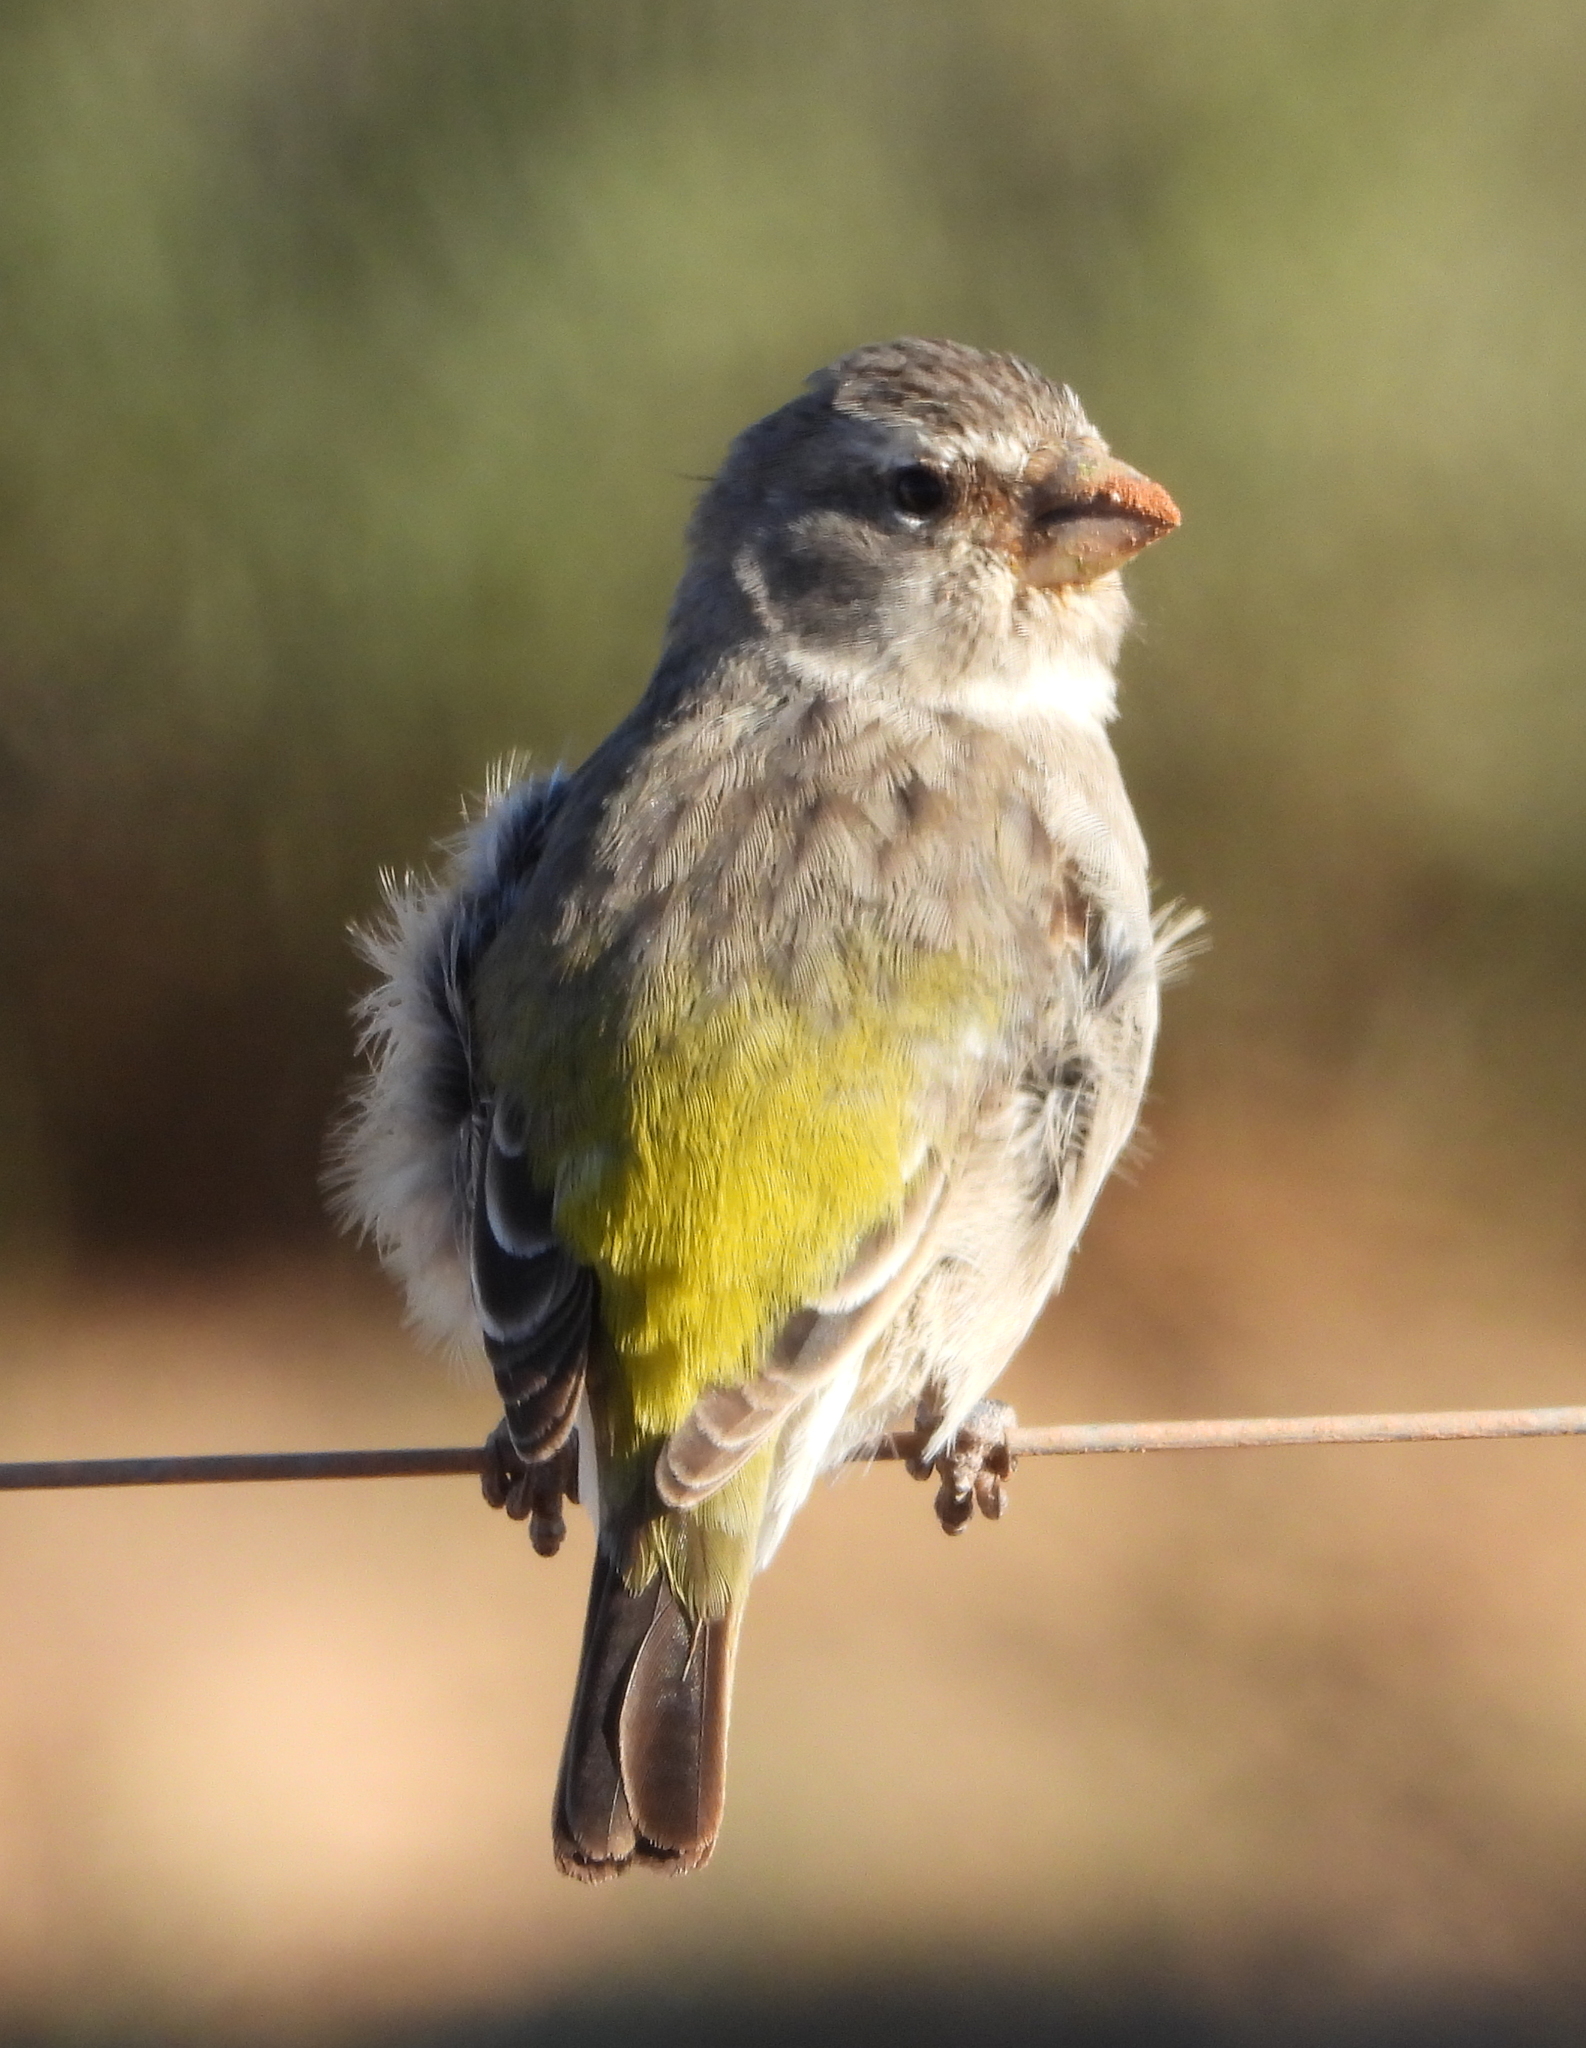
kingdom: Animalia
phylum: Chordata
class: Aves
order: Passeriformes
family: Fringillidae
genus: Crithagra
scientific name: Crithagra albogularis
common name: White-throated canary
